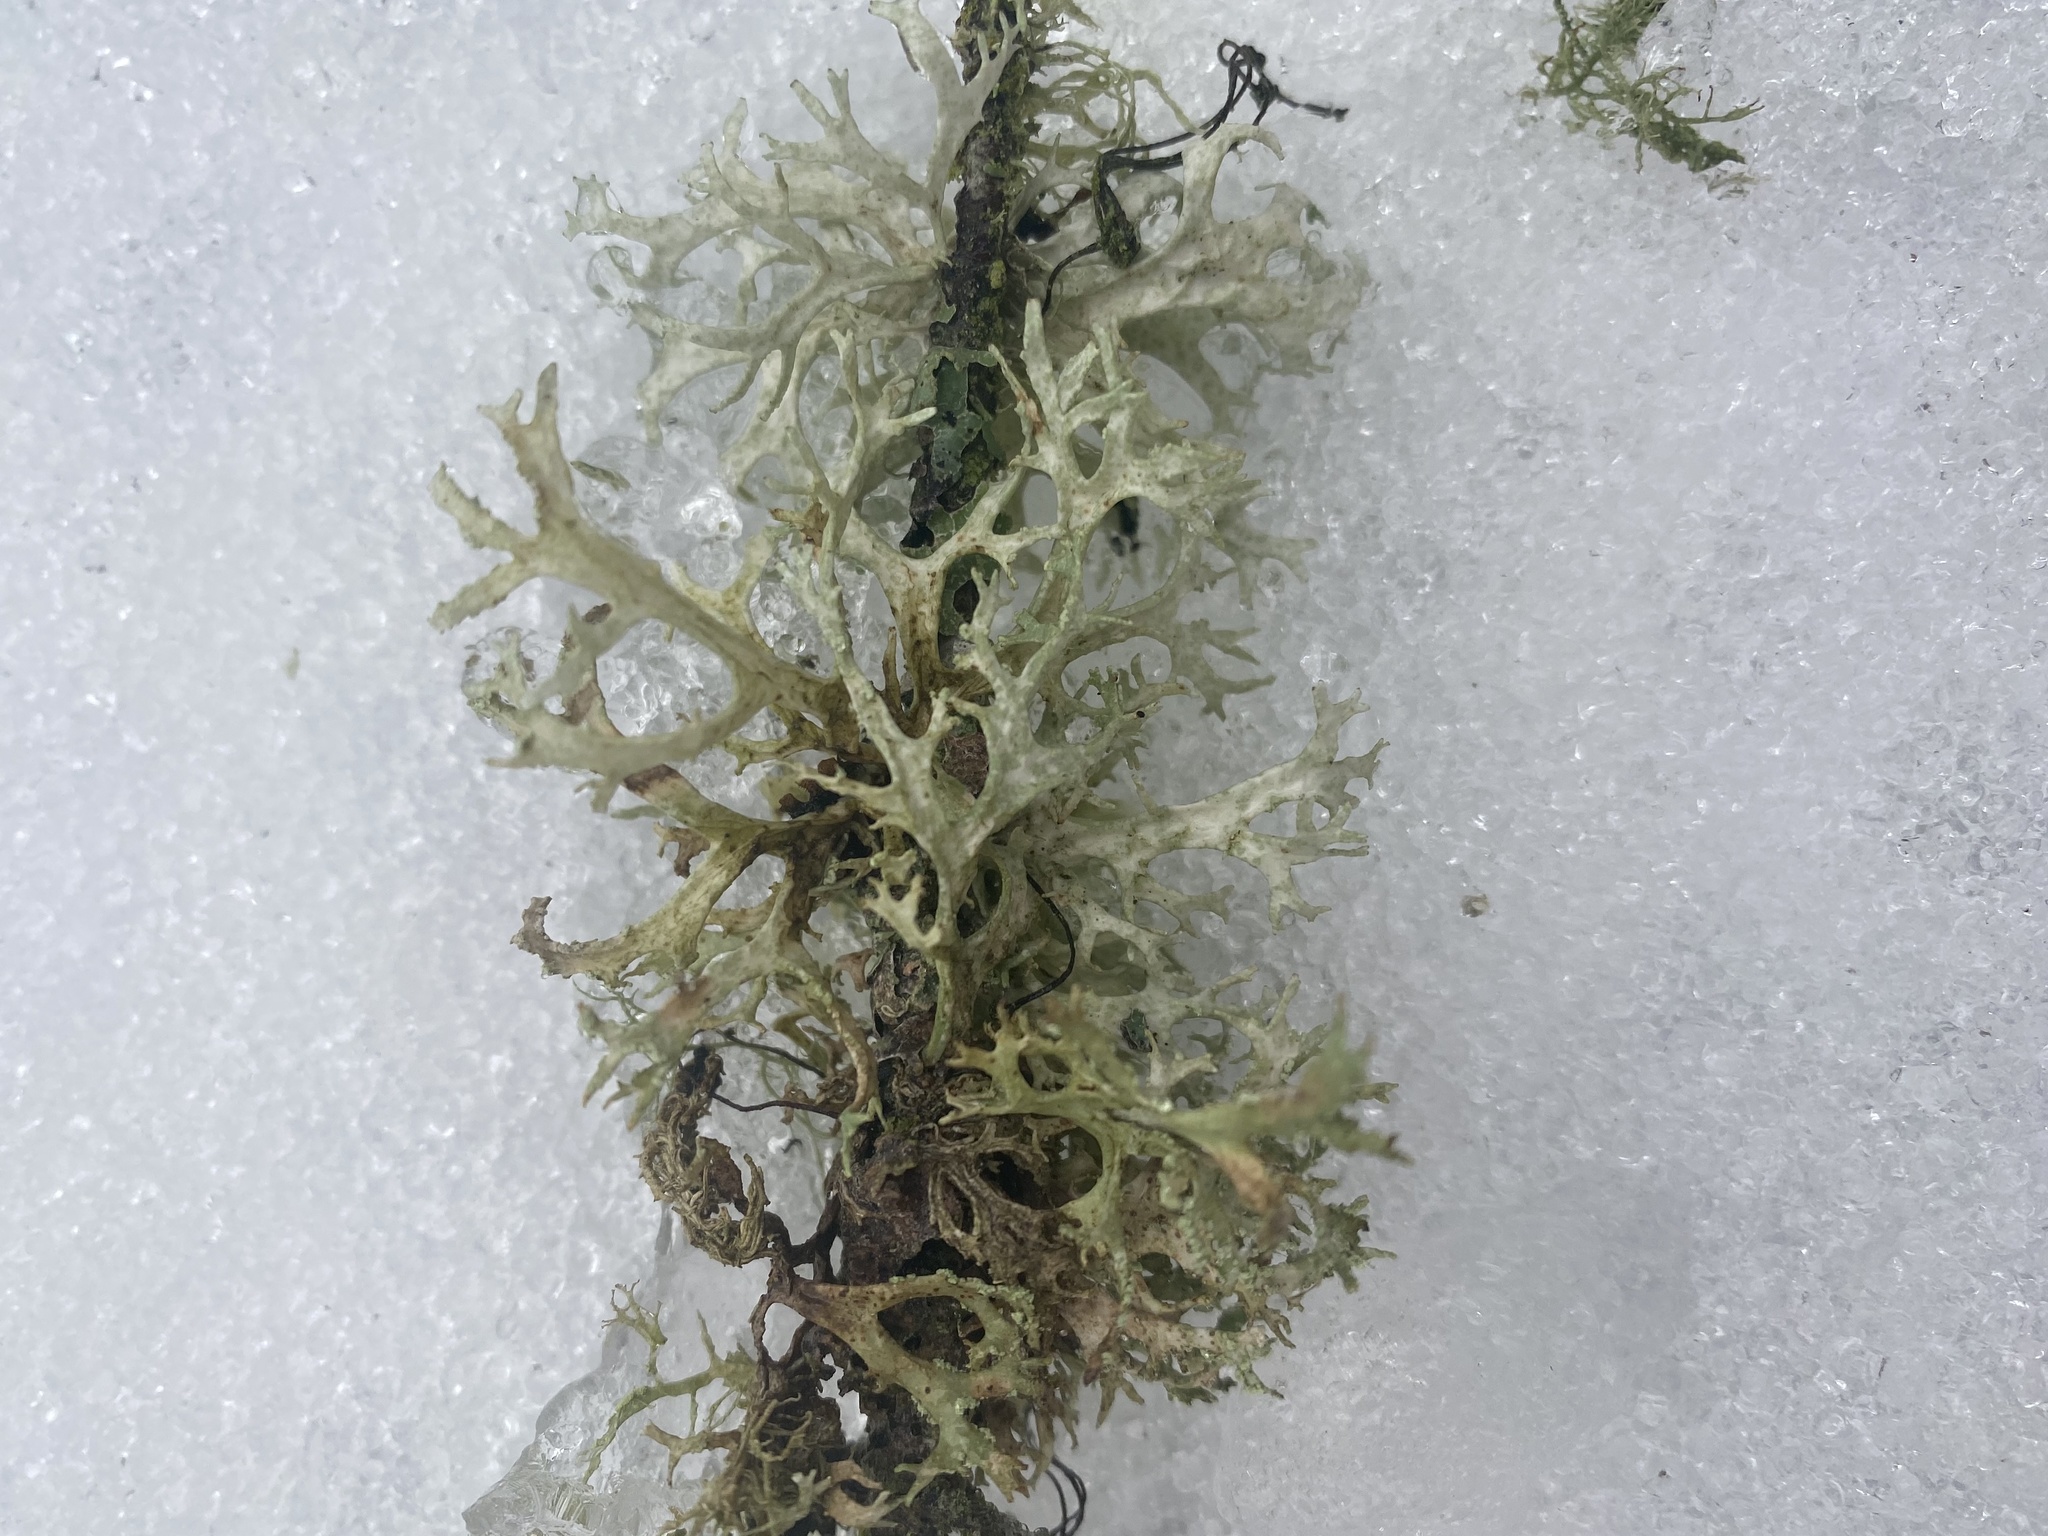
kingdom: Fungi
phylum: Ascomycota
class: Lecanoromycetes
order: Lecanorales
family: Parmeliaceae
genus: Evernia
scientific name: Evernia prunastri
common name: Oak moss
